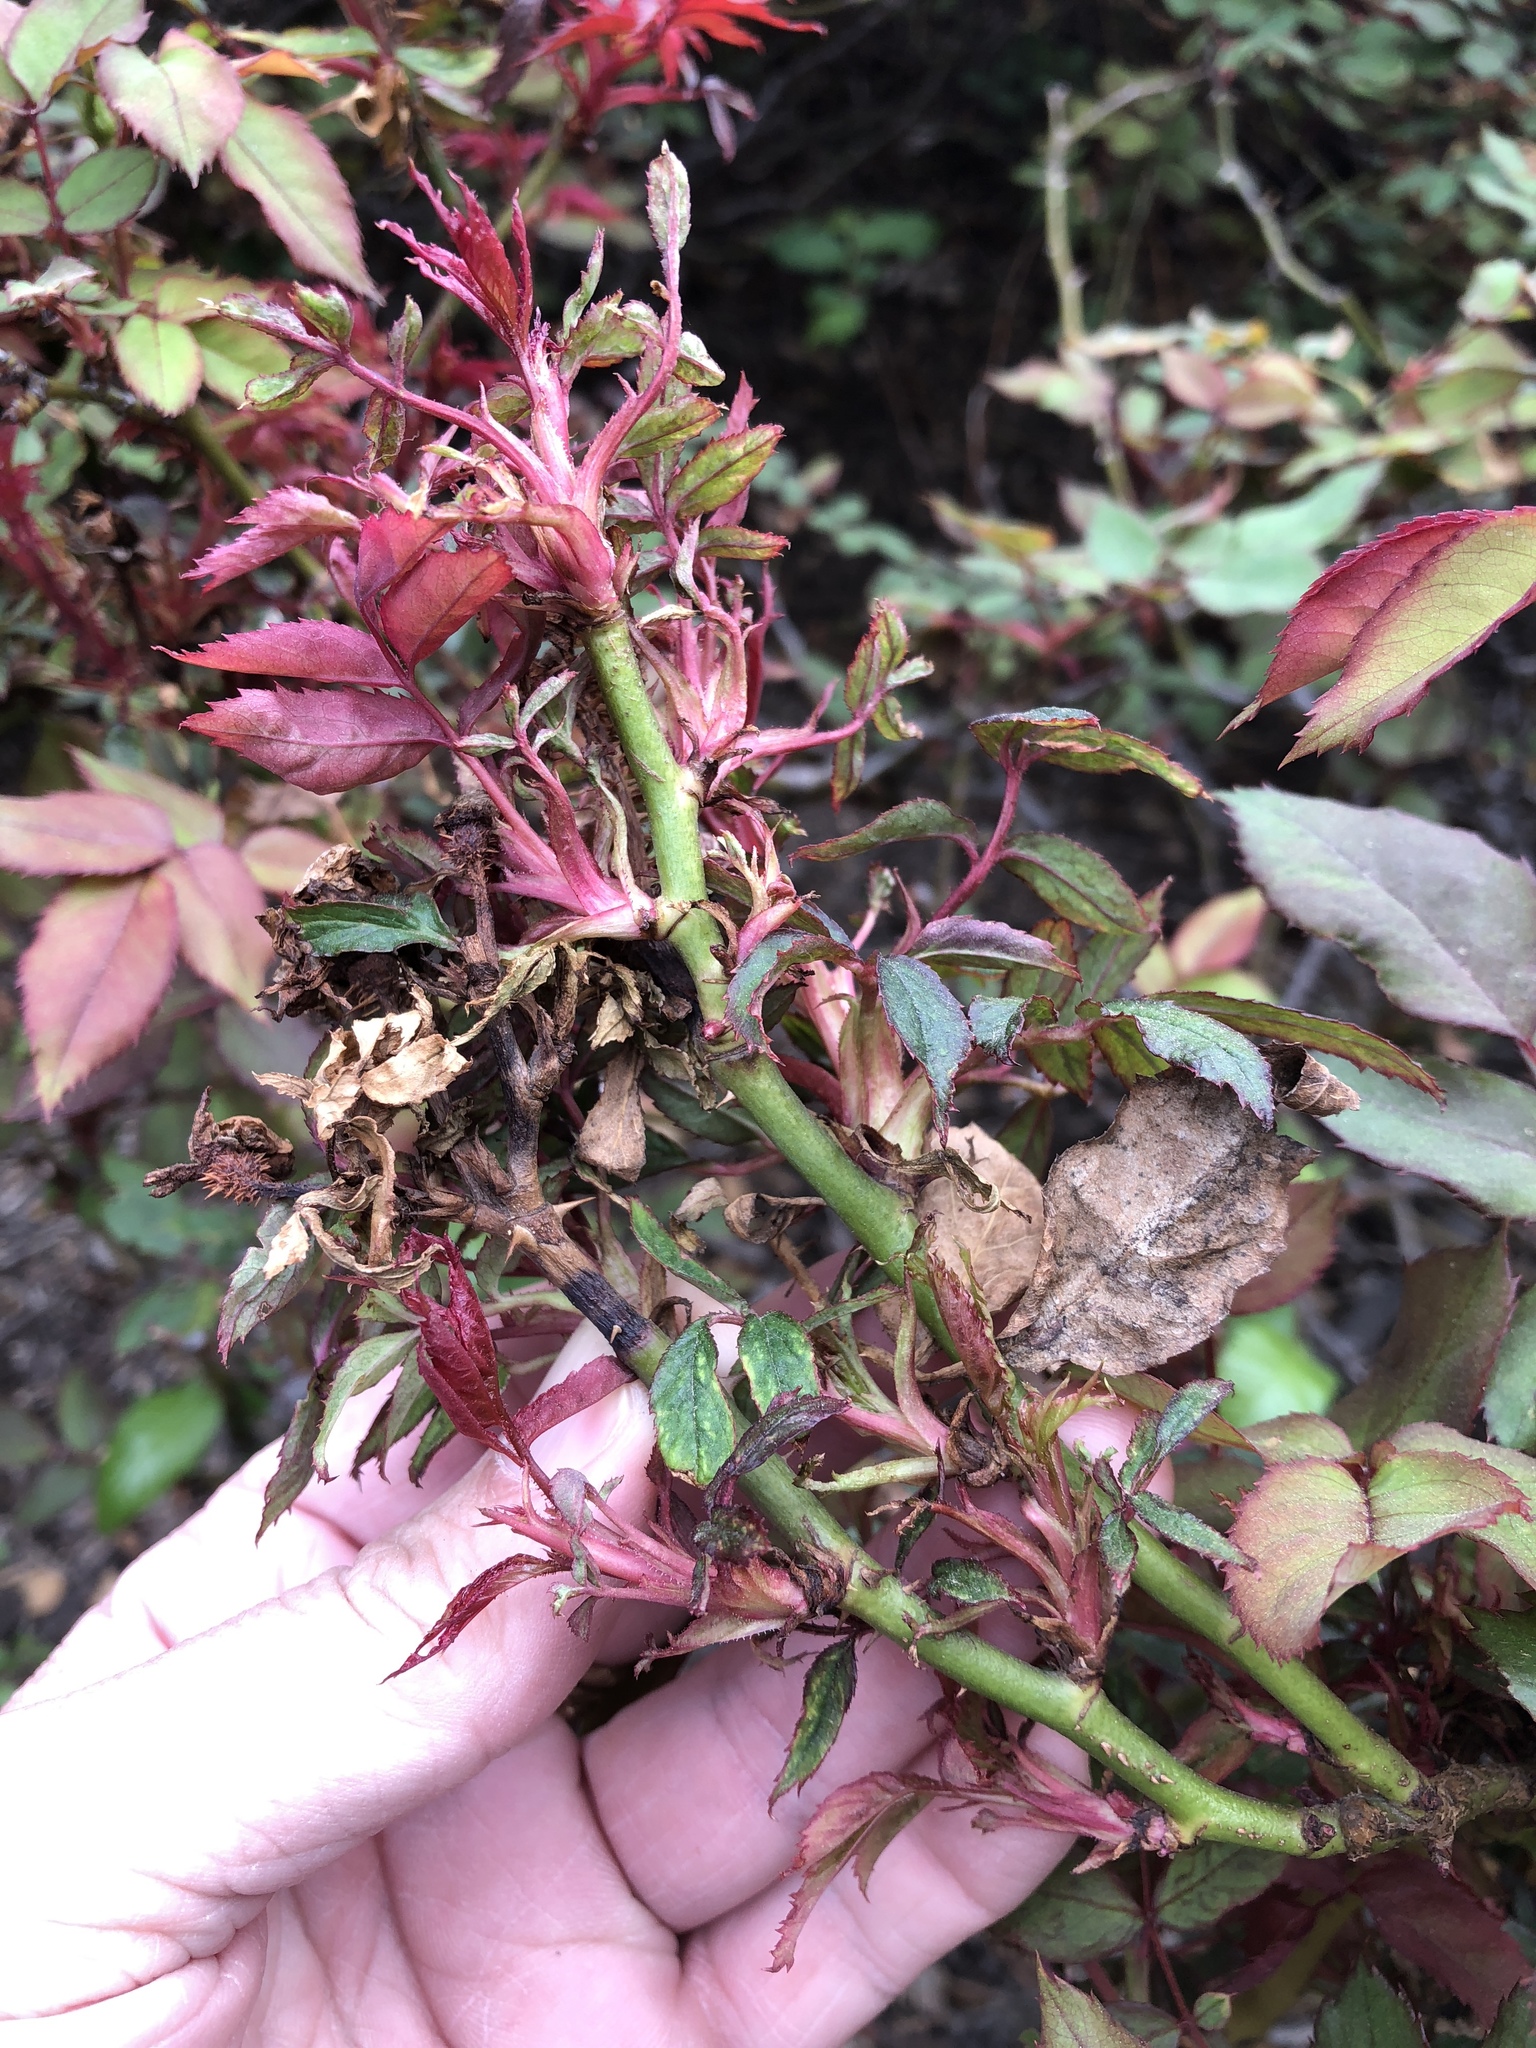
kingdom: Animalia
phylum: Arthropoda
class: Arachnida
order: Trombidiformes
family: Eriophyidae
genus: Phyllocoptes
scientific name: Phyllocoptes
